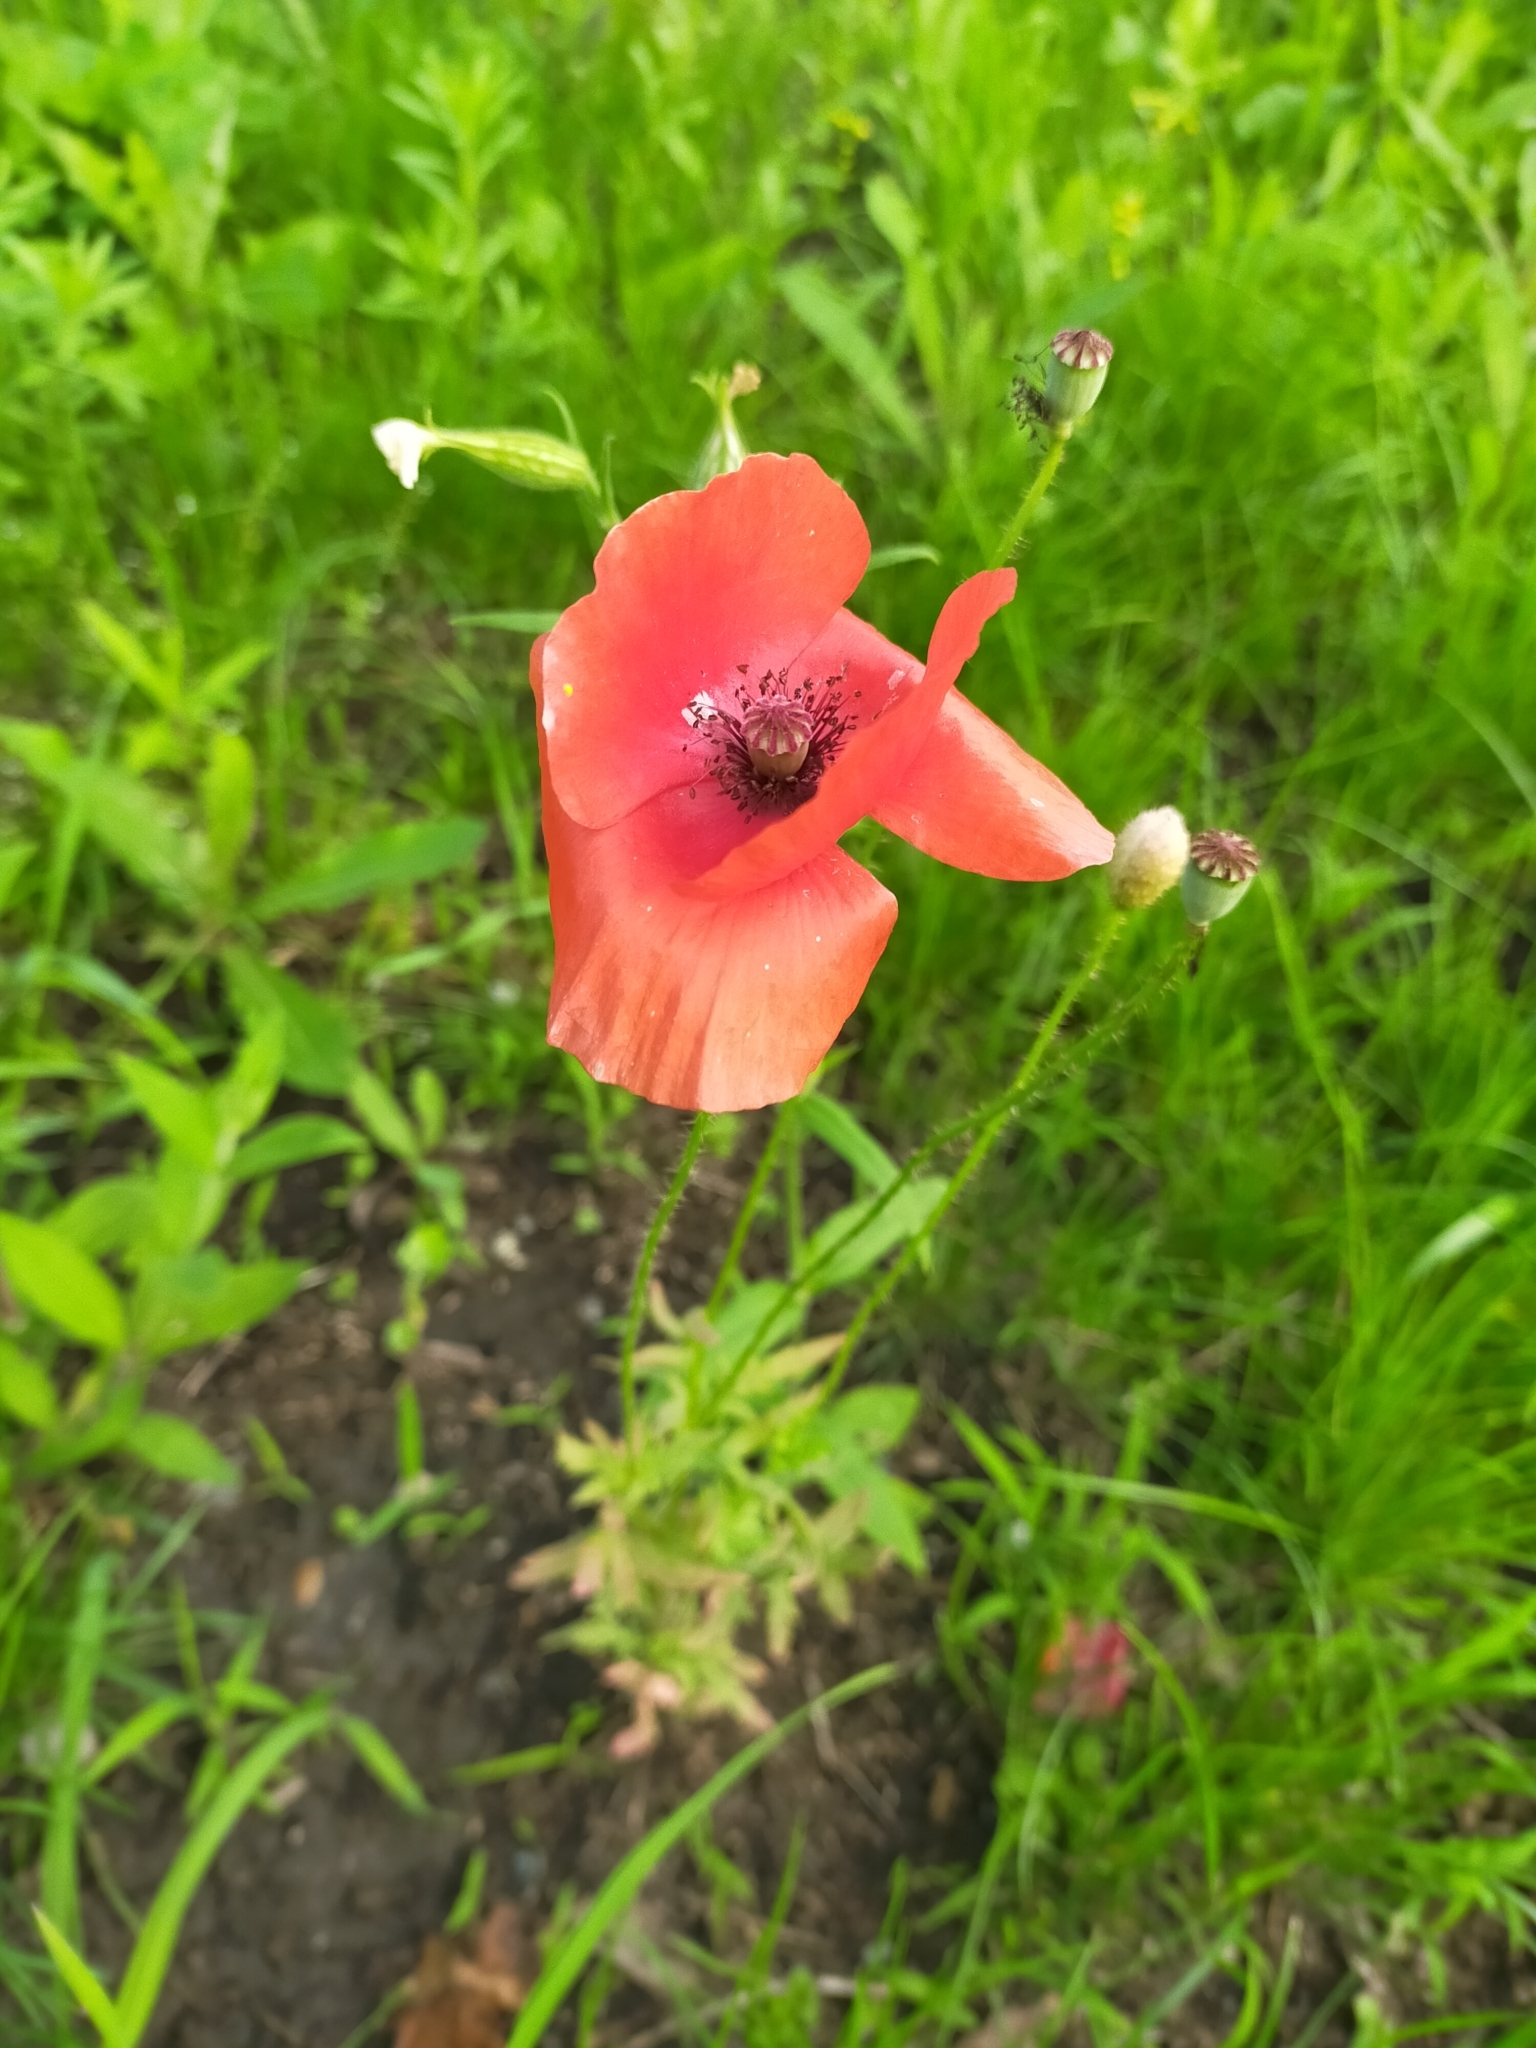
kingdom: Plantae
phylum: Tracheophyta
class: Magnoliopsida
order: Ranunculales
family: Papaveraceae
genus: Papaver
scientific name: Papaver rhoeas
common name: Corn poppy
